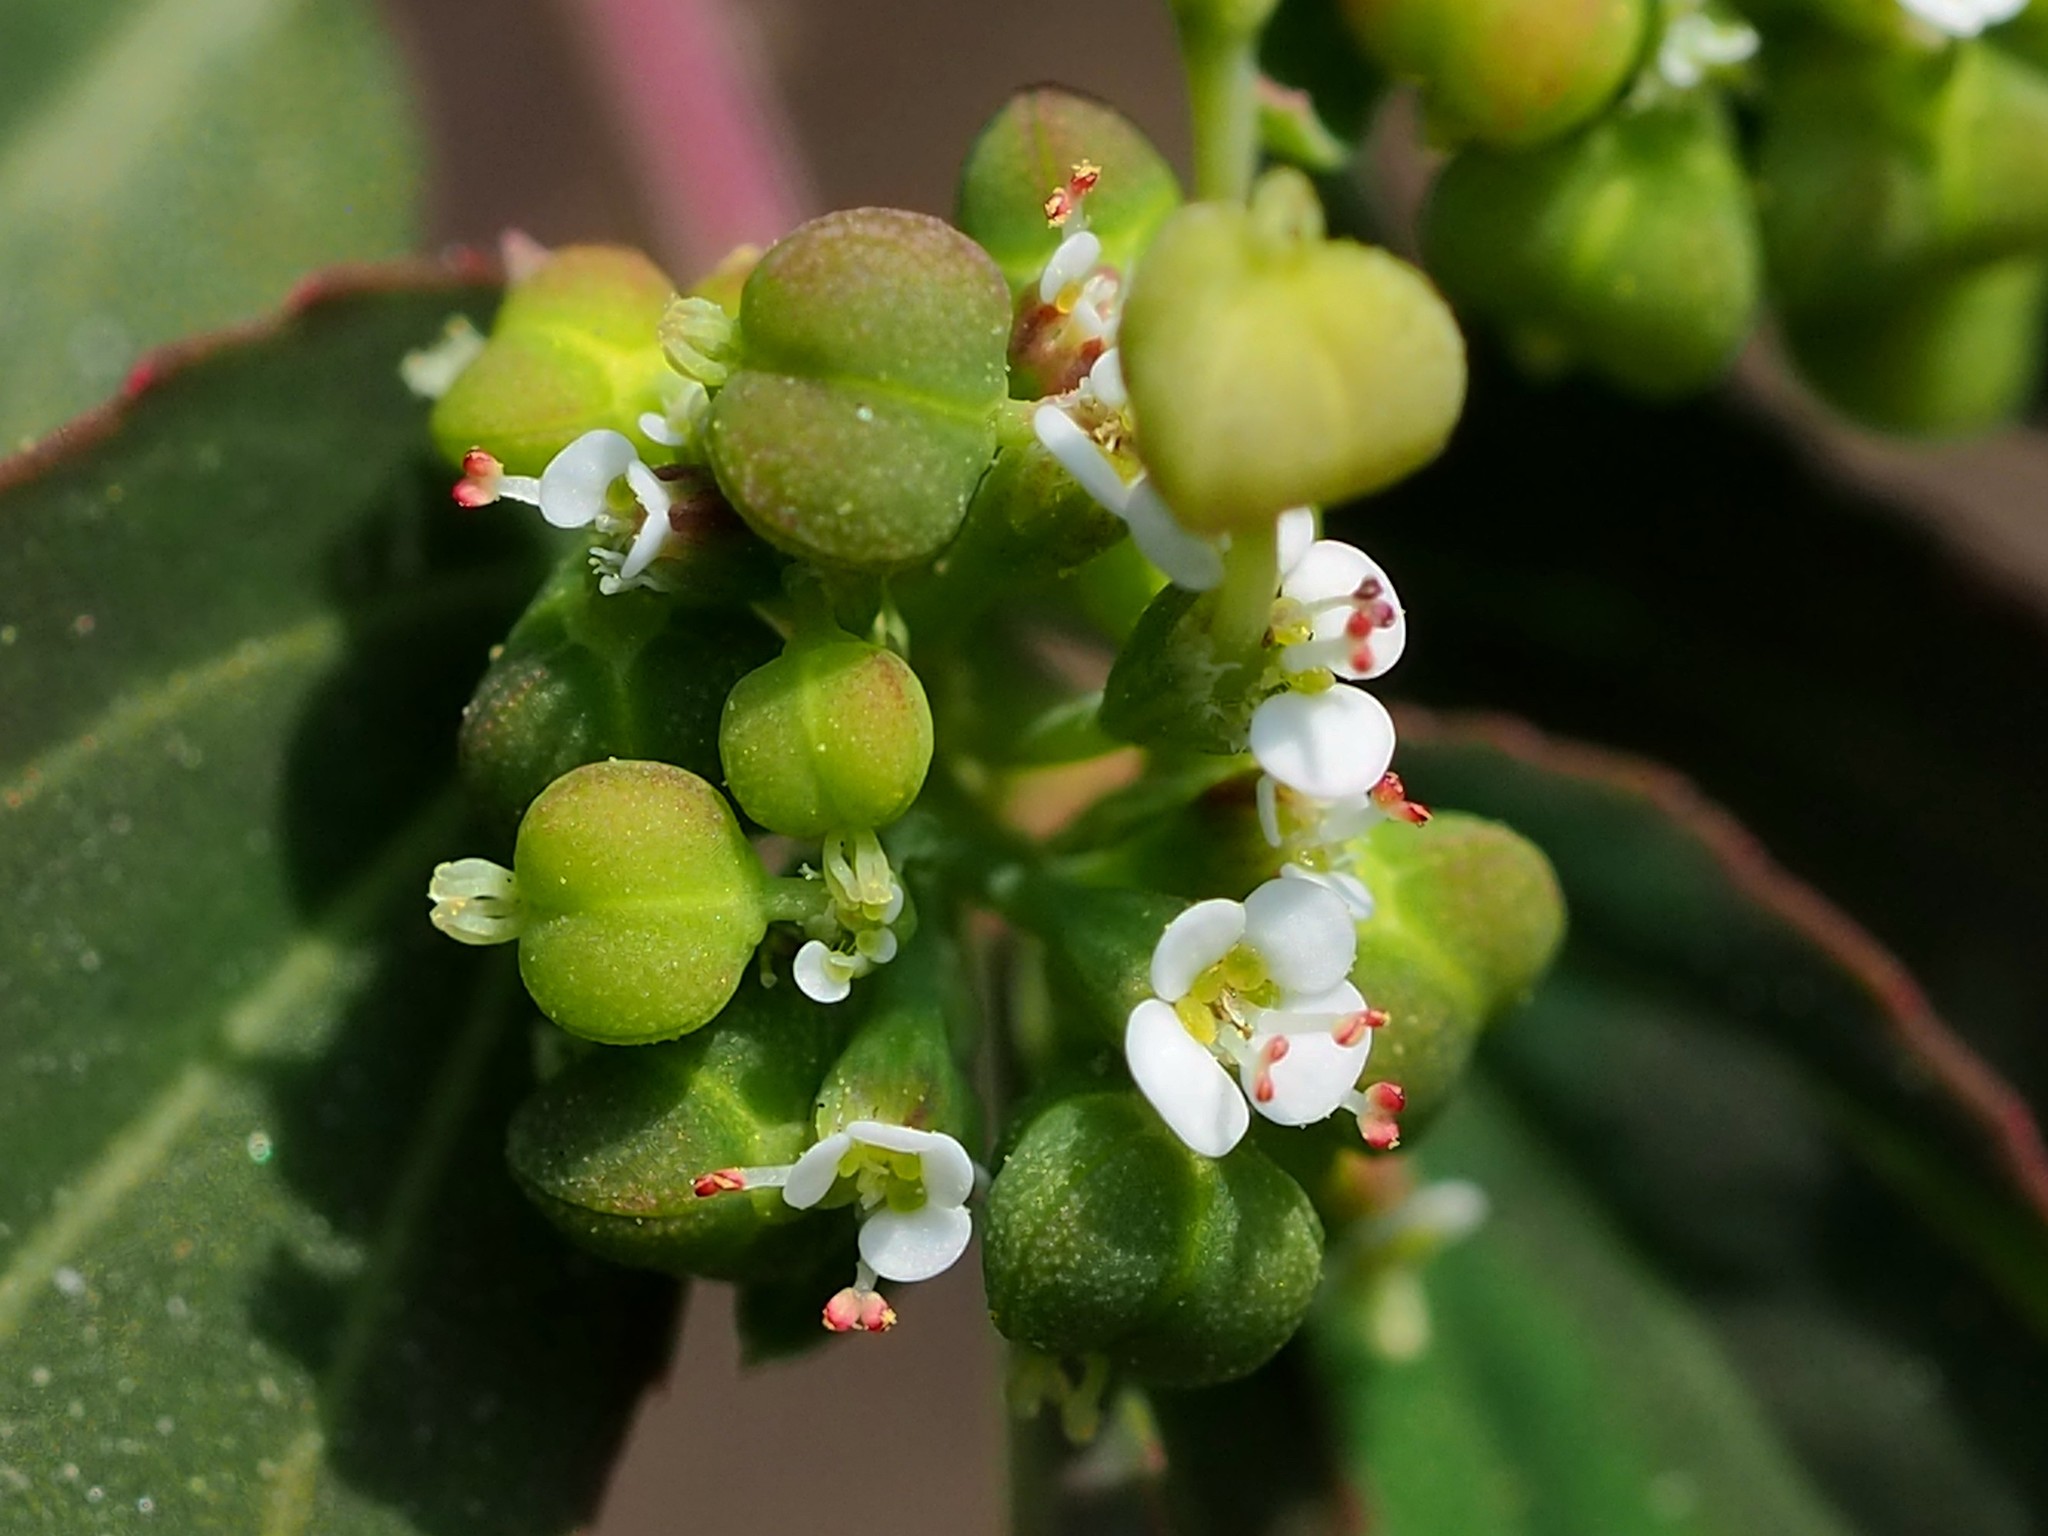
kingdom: Plantae
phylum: Tracheophyta
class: Magnoliopsida
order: Malpighiales
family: Euphorbiaceae
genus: Euphorbia
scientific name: Euphorbia hypericifolia
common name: Graceful sandmat
